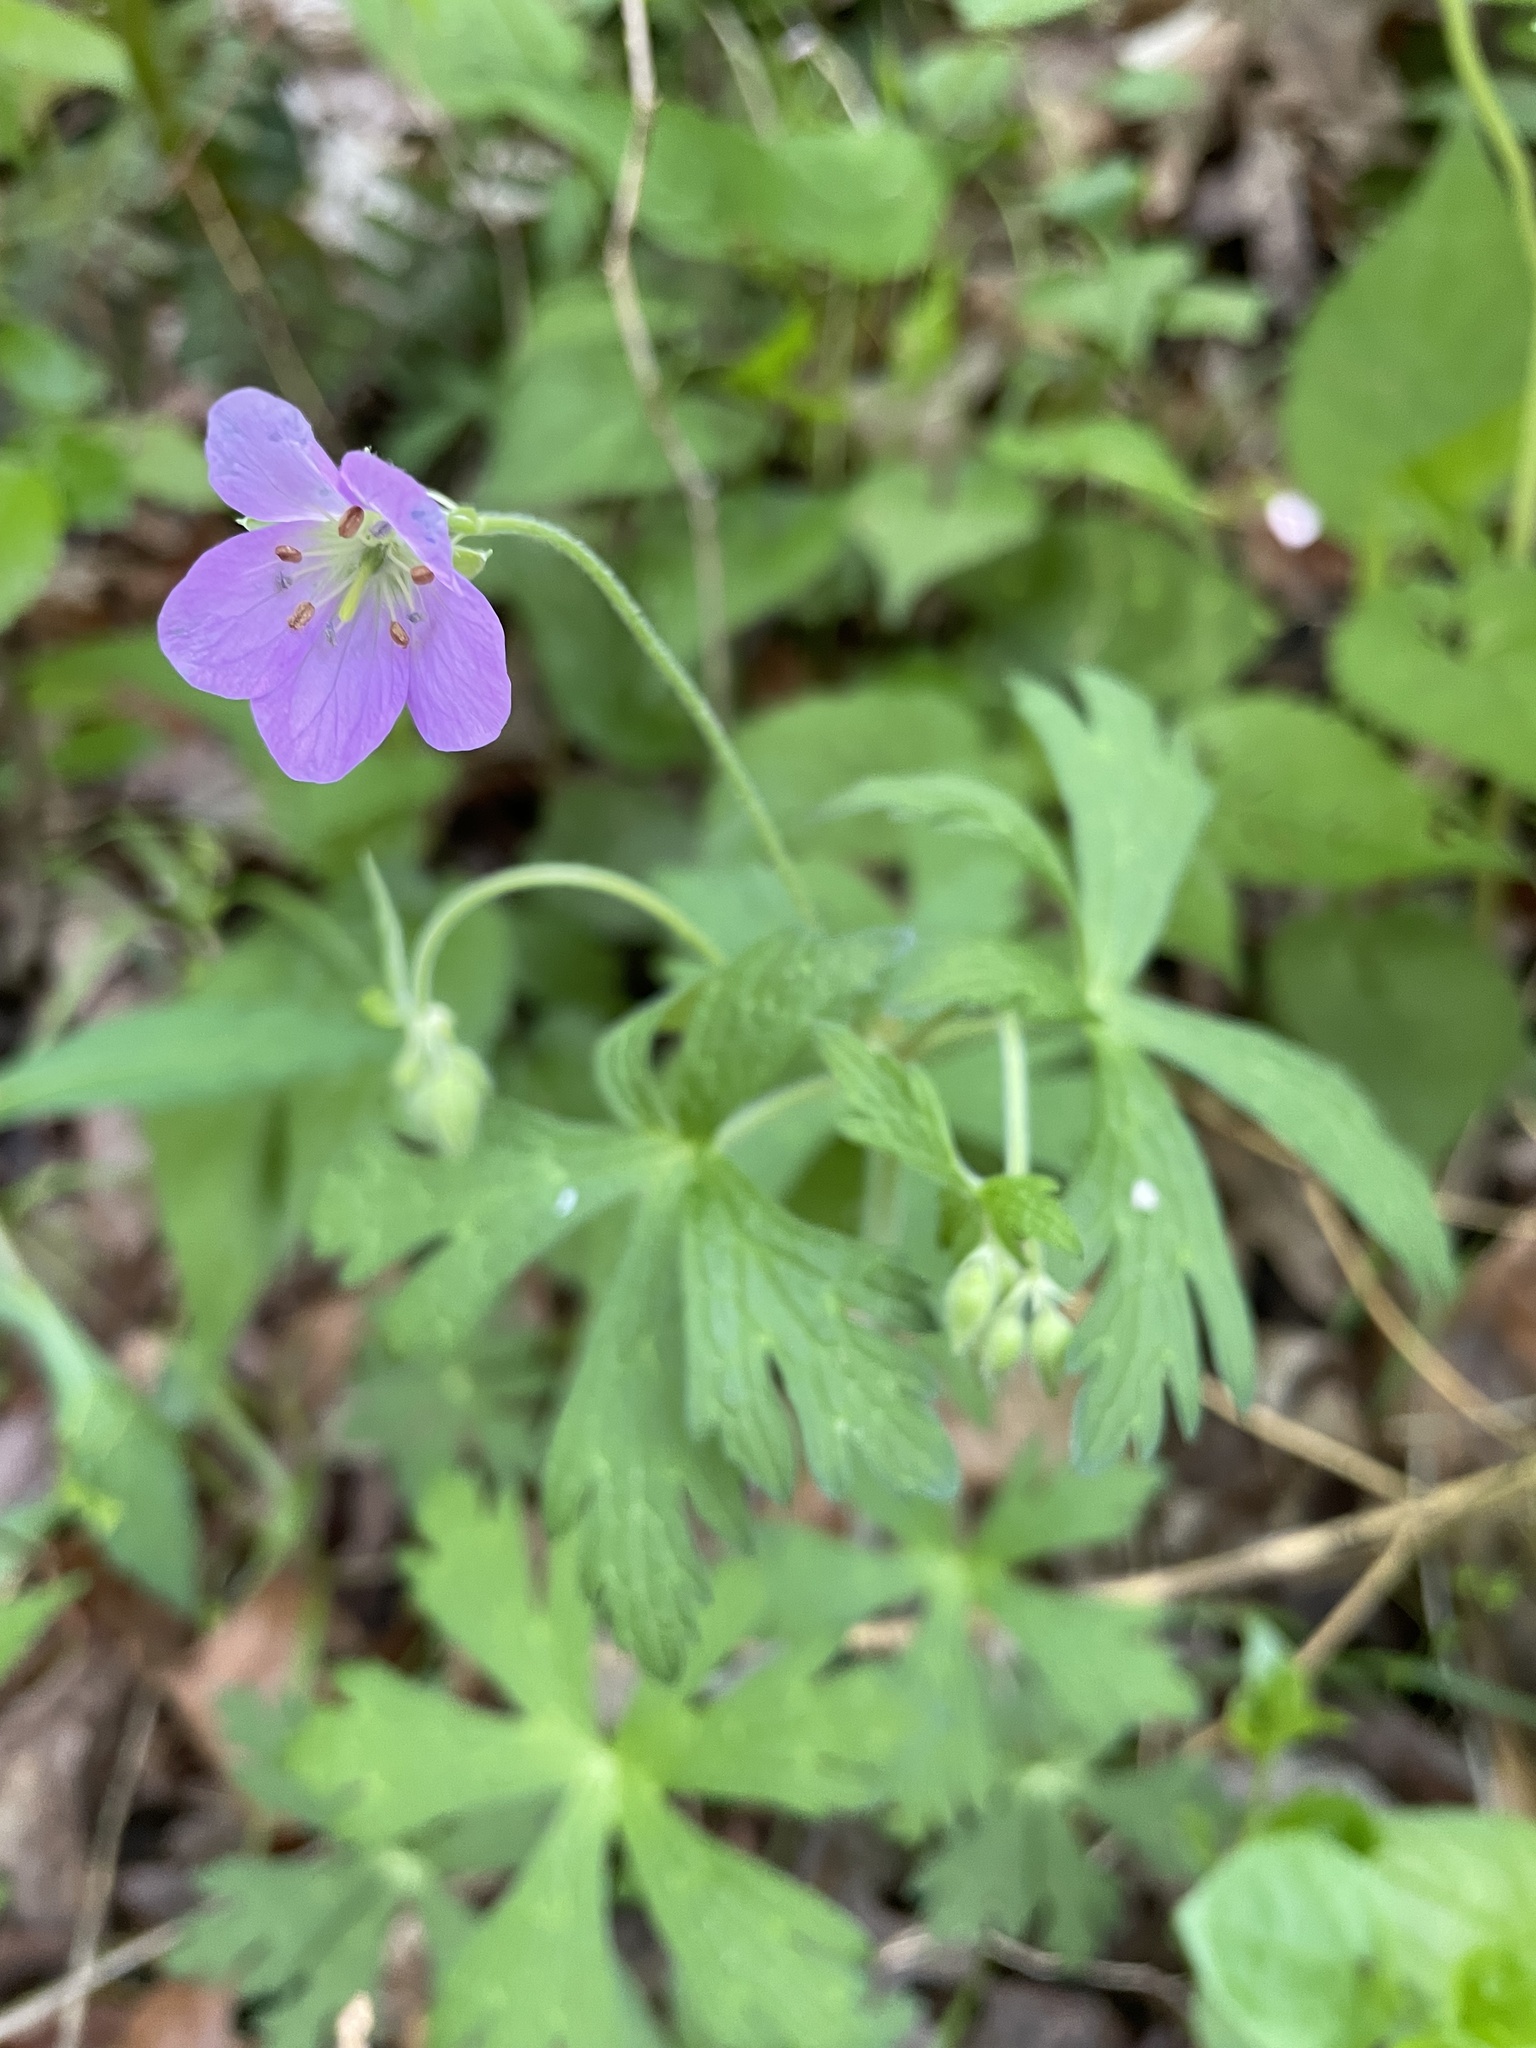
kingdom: Plantae
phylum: Tracheophyta
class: Magnoliopsida
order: Geraniales
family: Geraniaceae
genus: Geranium
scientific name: Geranium maculatum
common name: Spotted geranium
